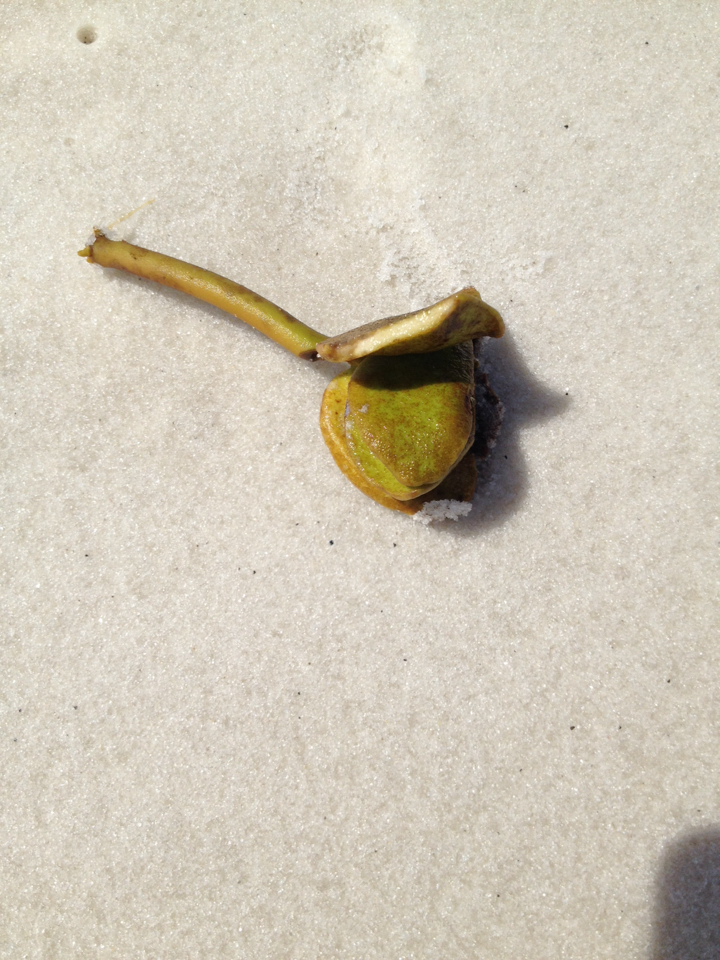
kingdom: Plantae
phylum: Tracheophyta
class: Magnoliopsida
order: Lamiales
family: Acanthaceae
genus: Avicennia
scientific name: Avicennia germinans
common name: Black mangrove
